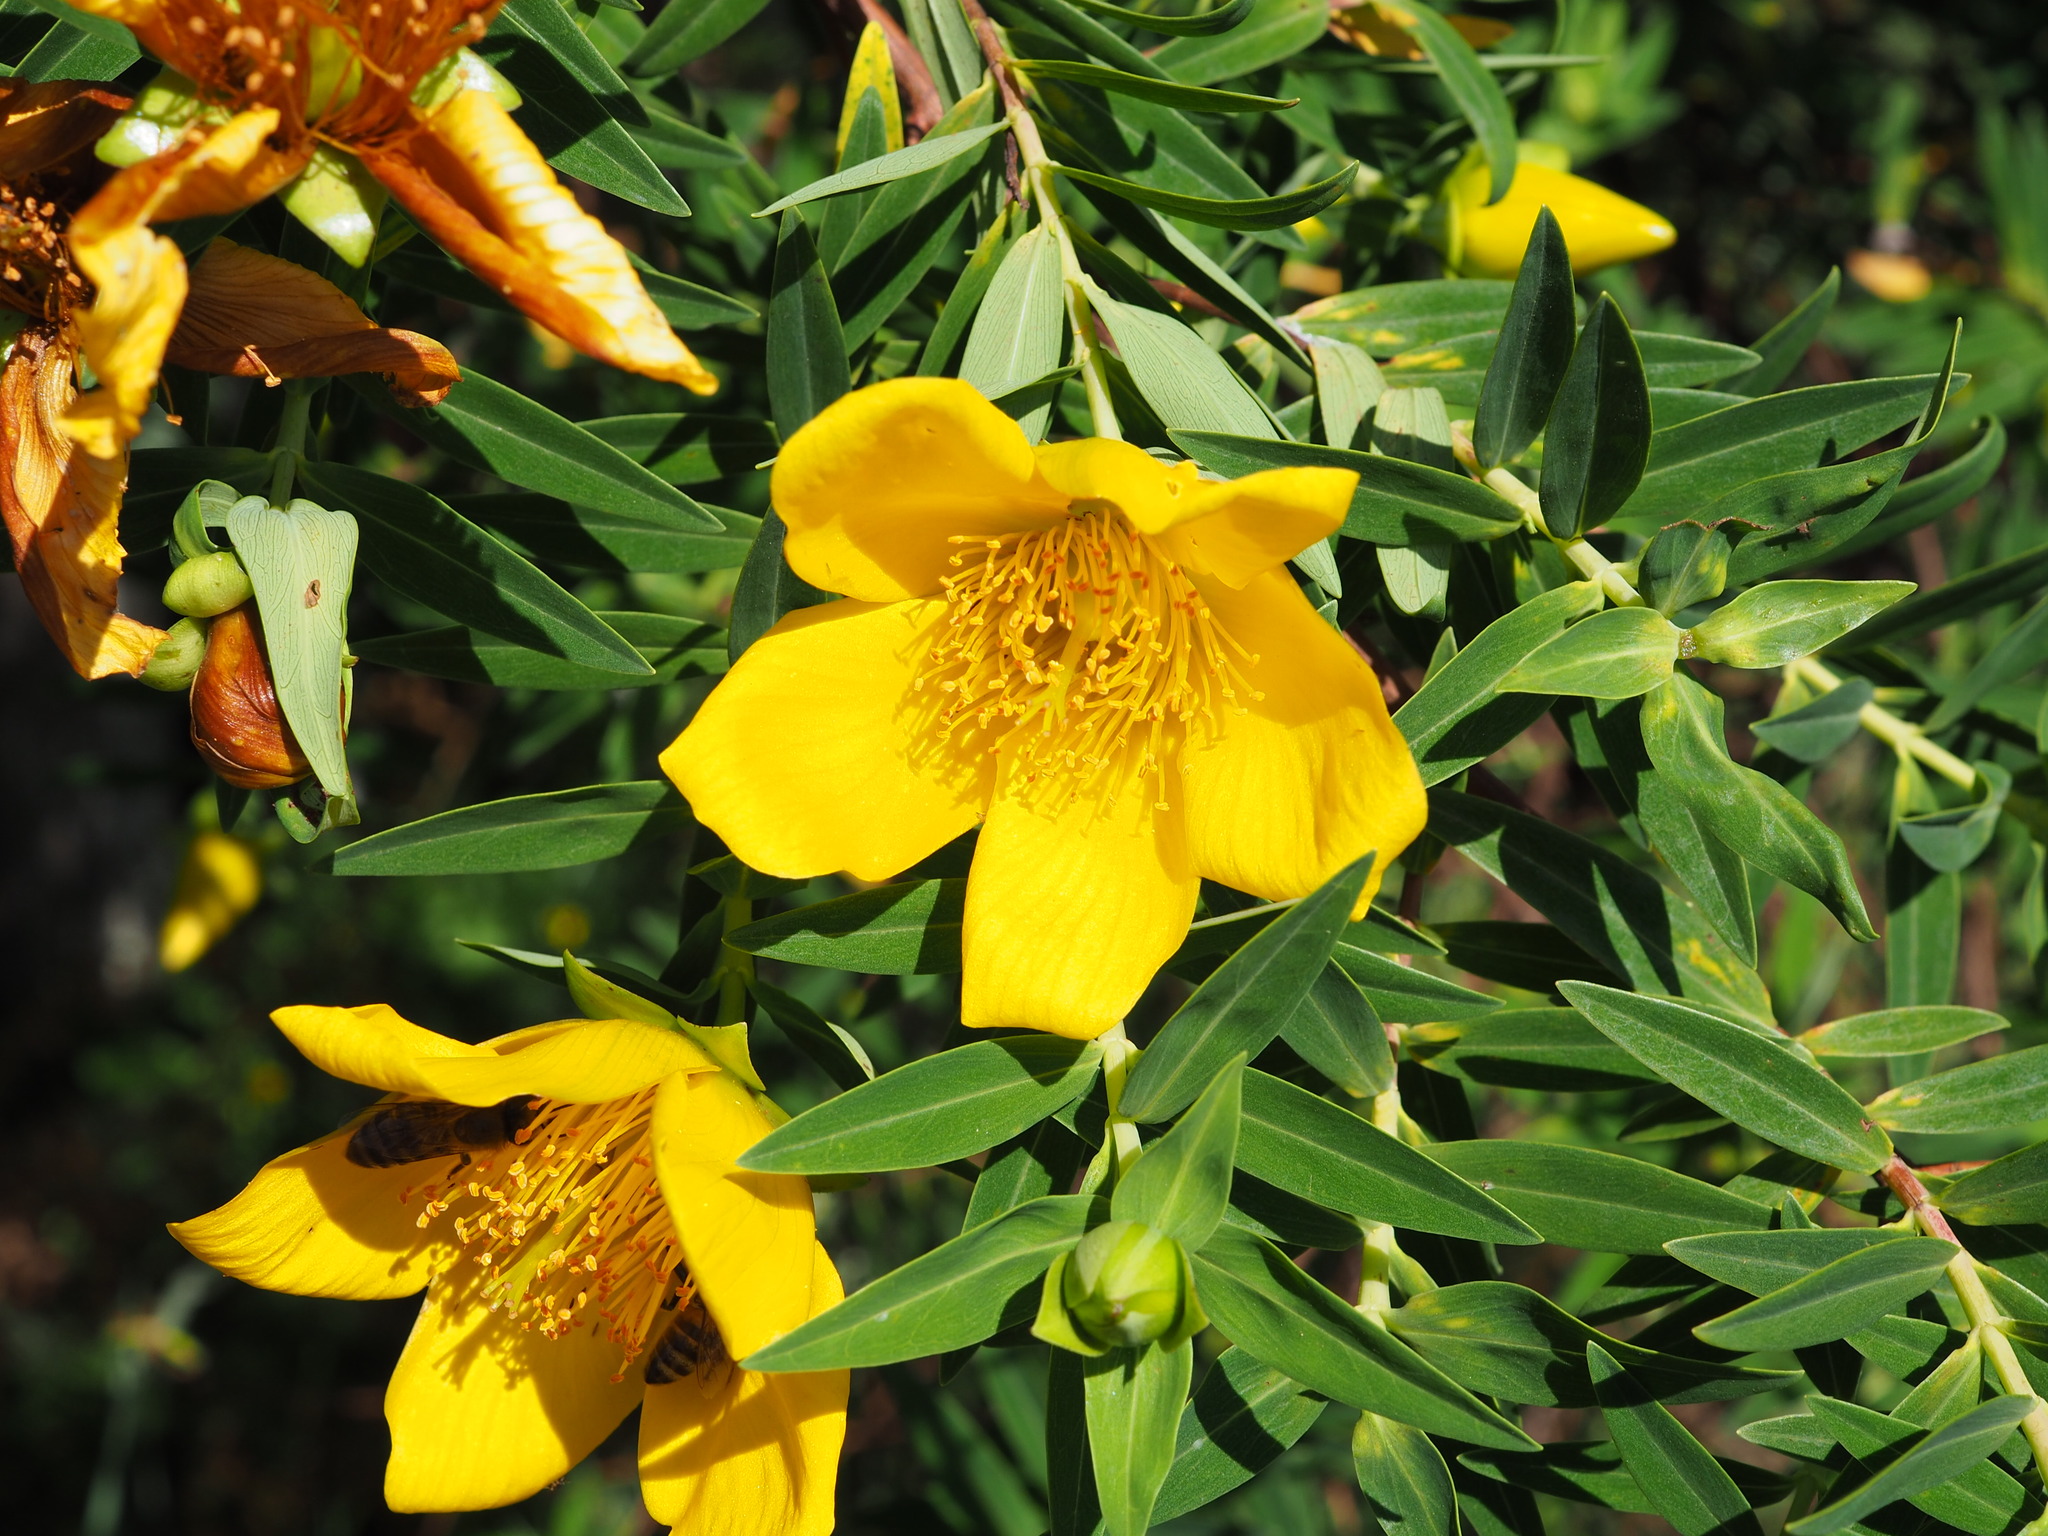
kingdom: Plantae
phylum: Tracheophyta
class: Magnoliopsida
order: Malpighiales
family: Hypericaceae
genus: Hypericum
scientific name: Hypericum lanceolatum
